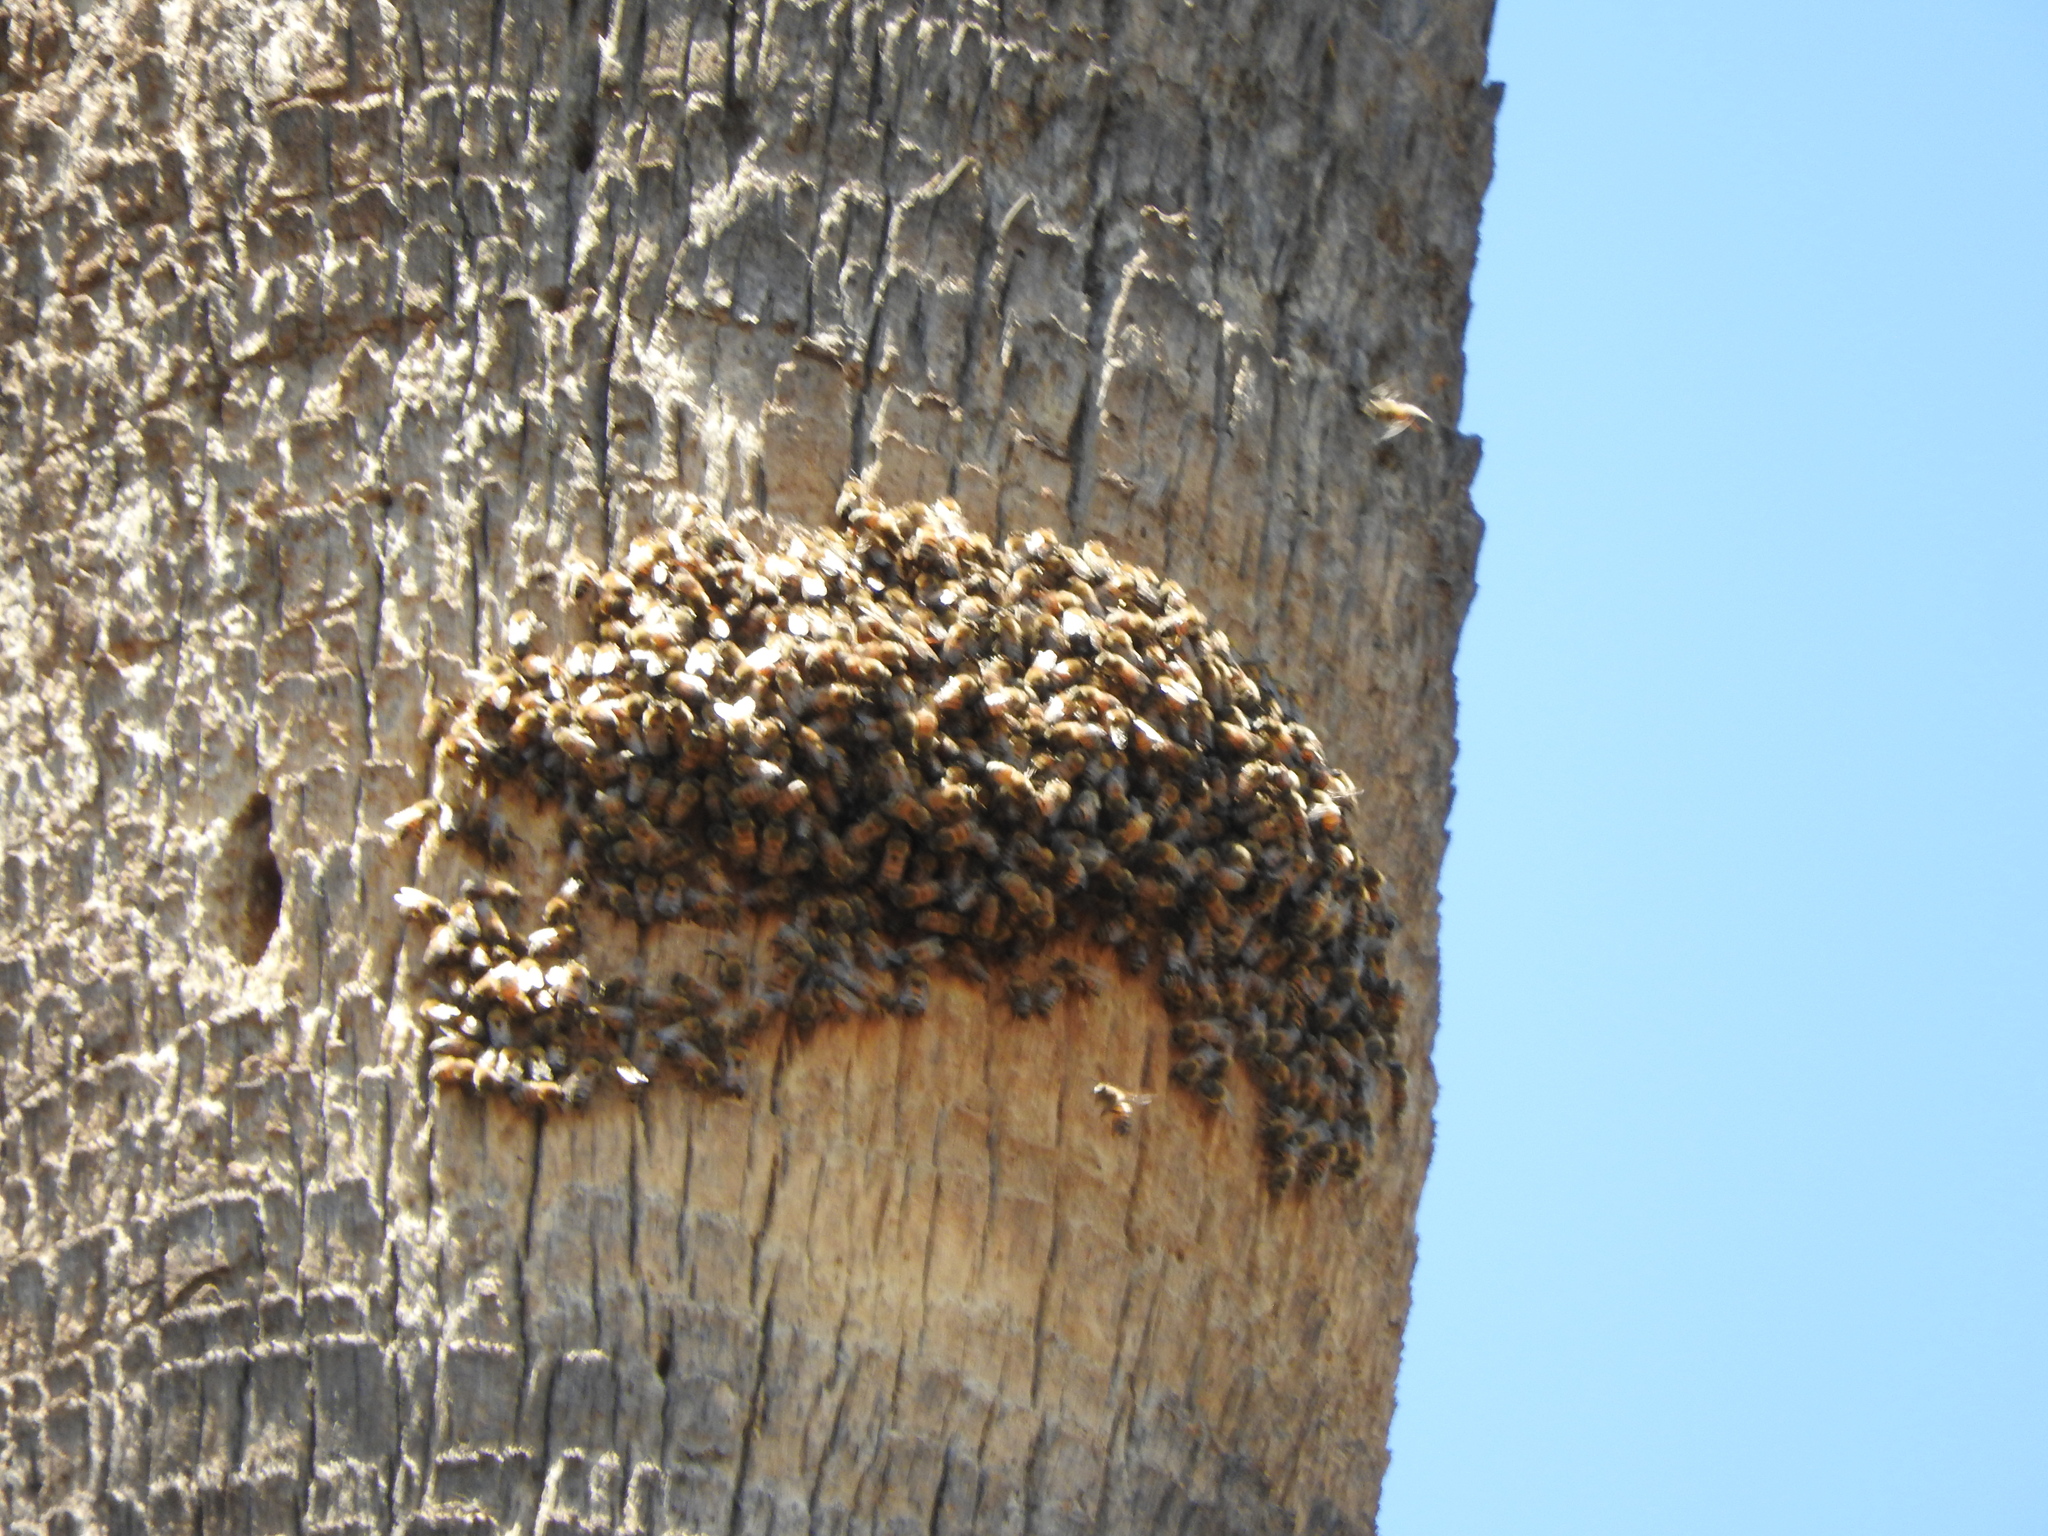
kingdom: Animalia
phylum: Arthropoda
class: Insecta
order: Hymenoptera
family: Apidae
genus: Apis
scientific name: Apis mellifera
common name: Honey bee
